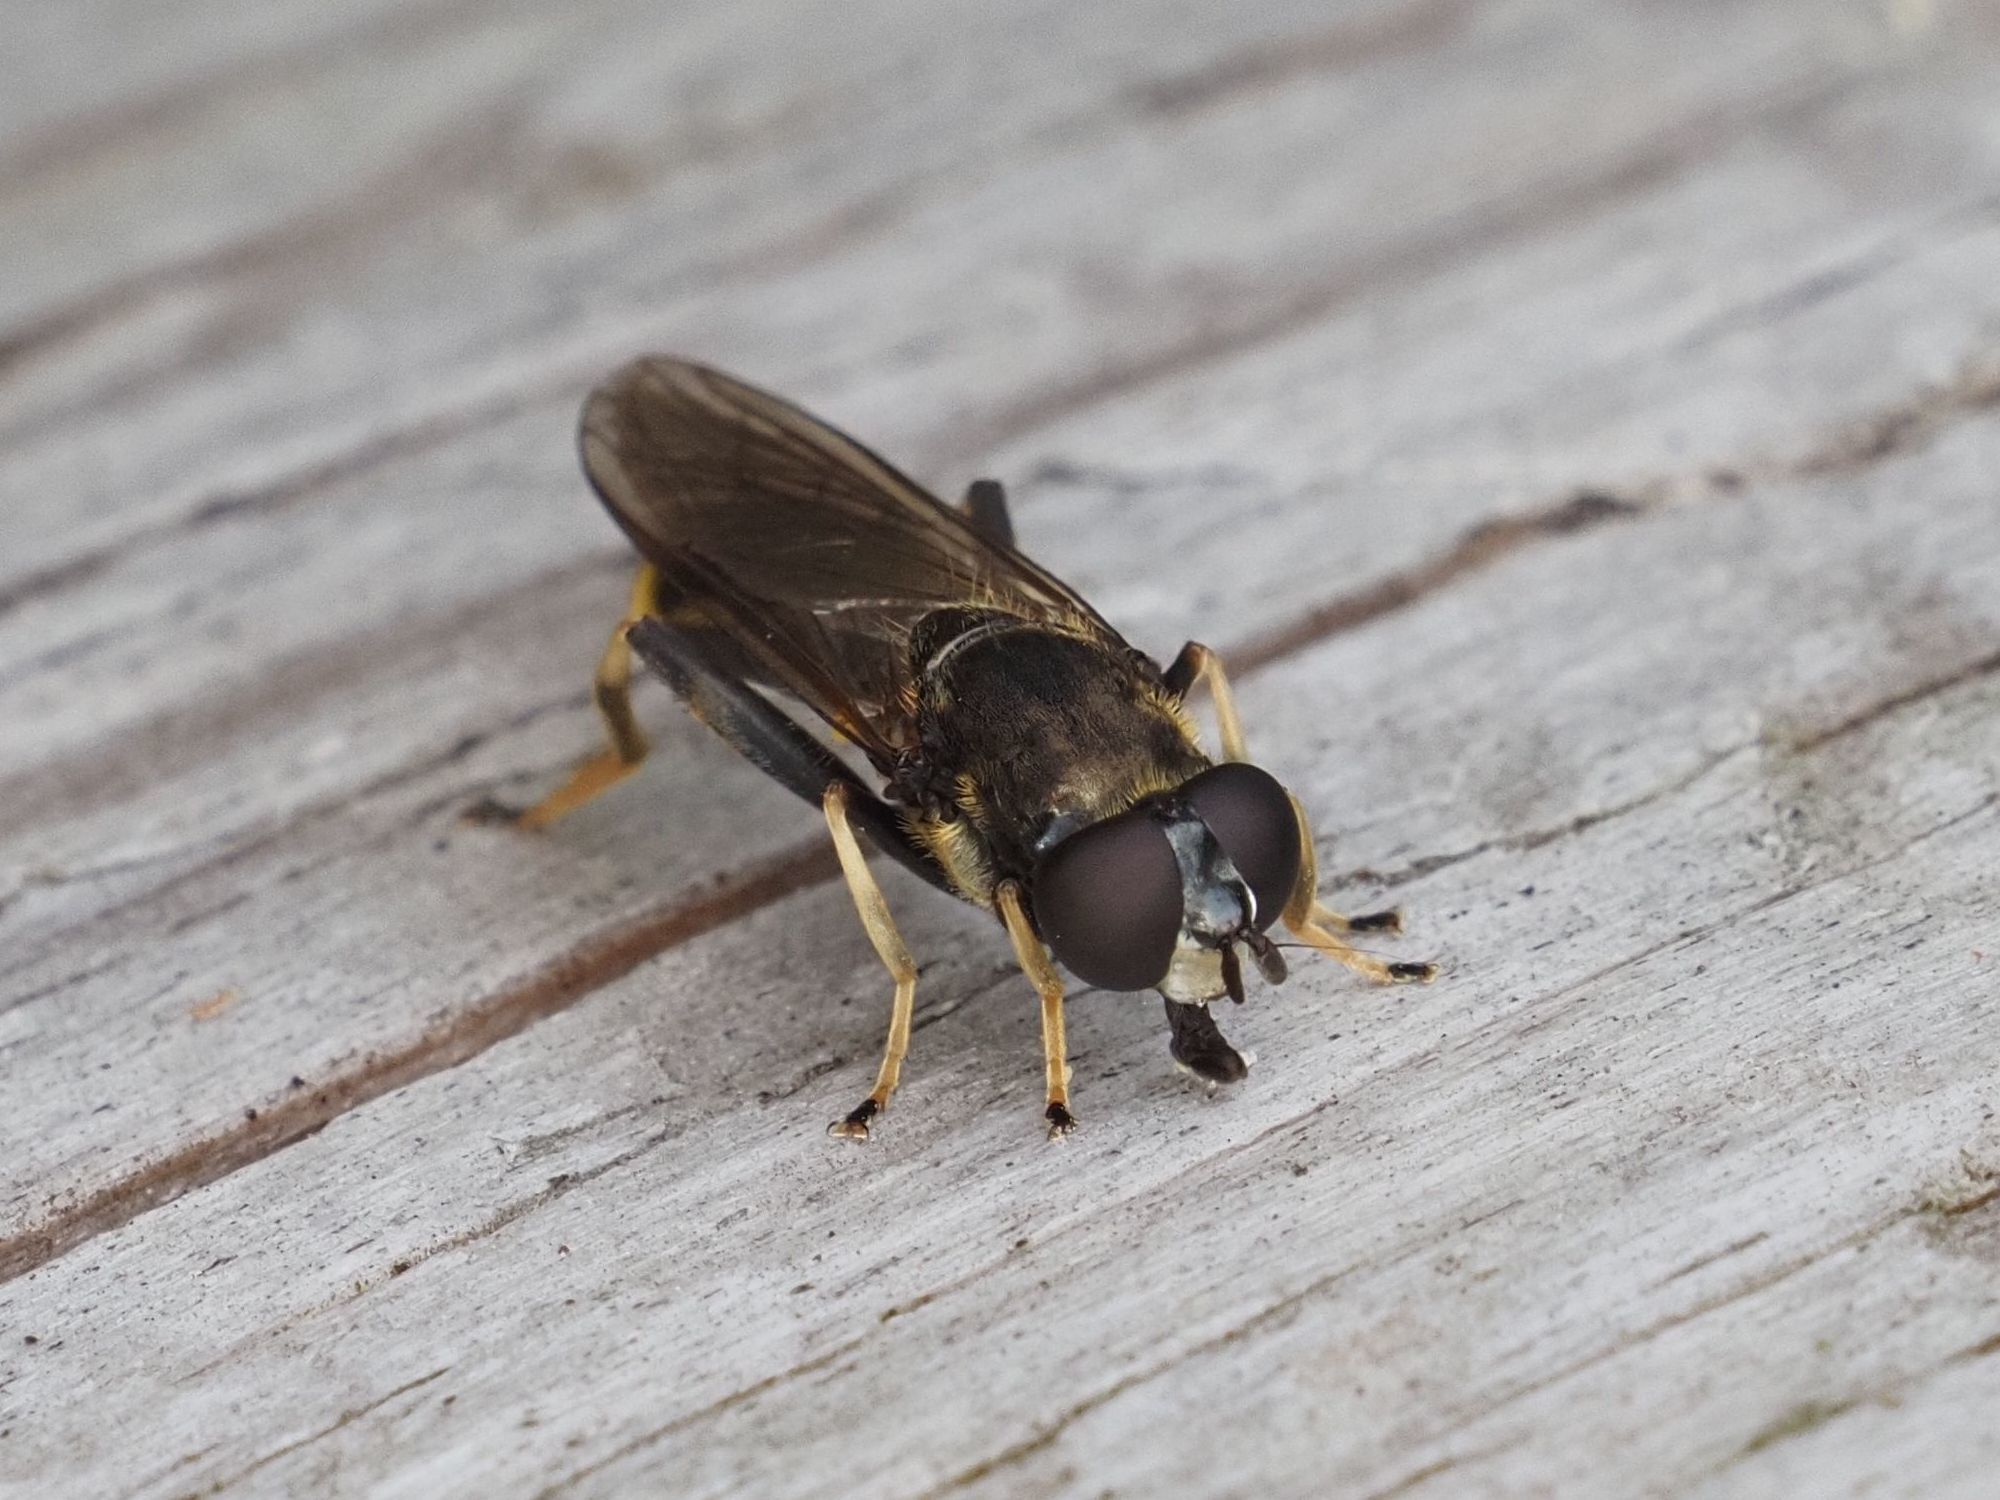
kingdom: Animalia
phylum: Arthropoda
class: Insecta
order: Diptera
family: Syrphidae
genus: Xylota
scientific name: Xylota sylvarum
